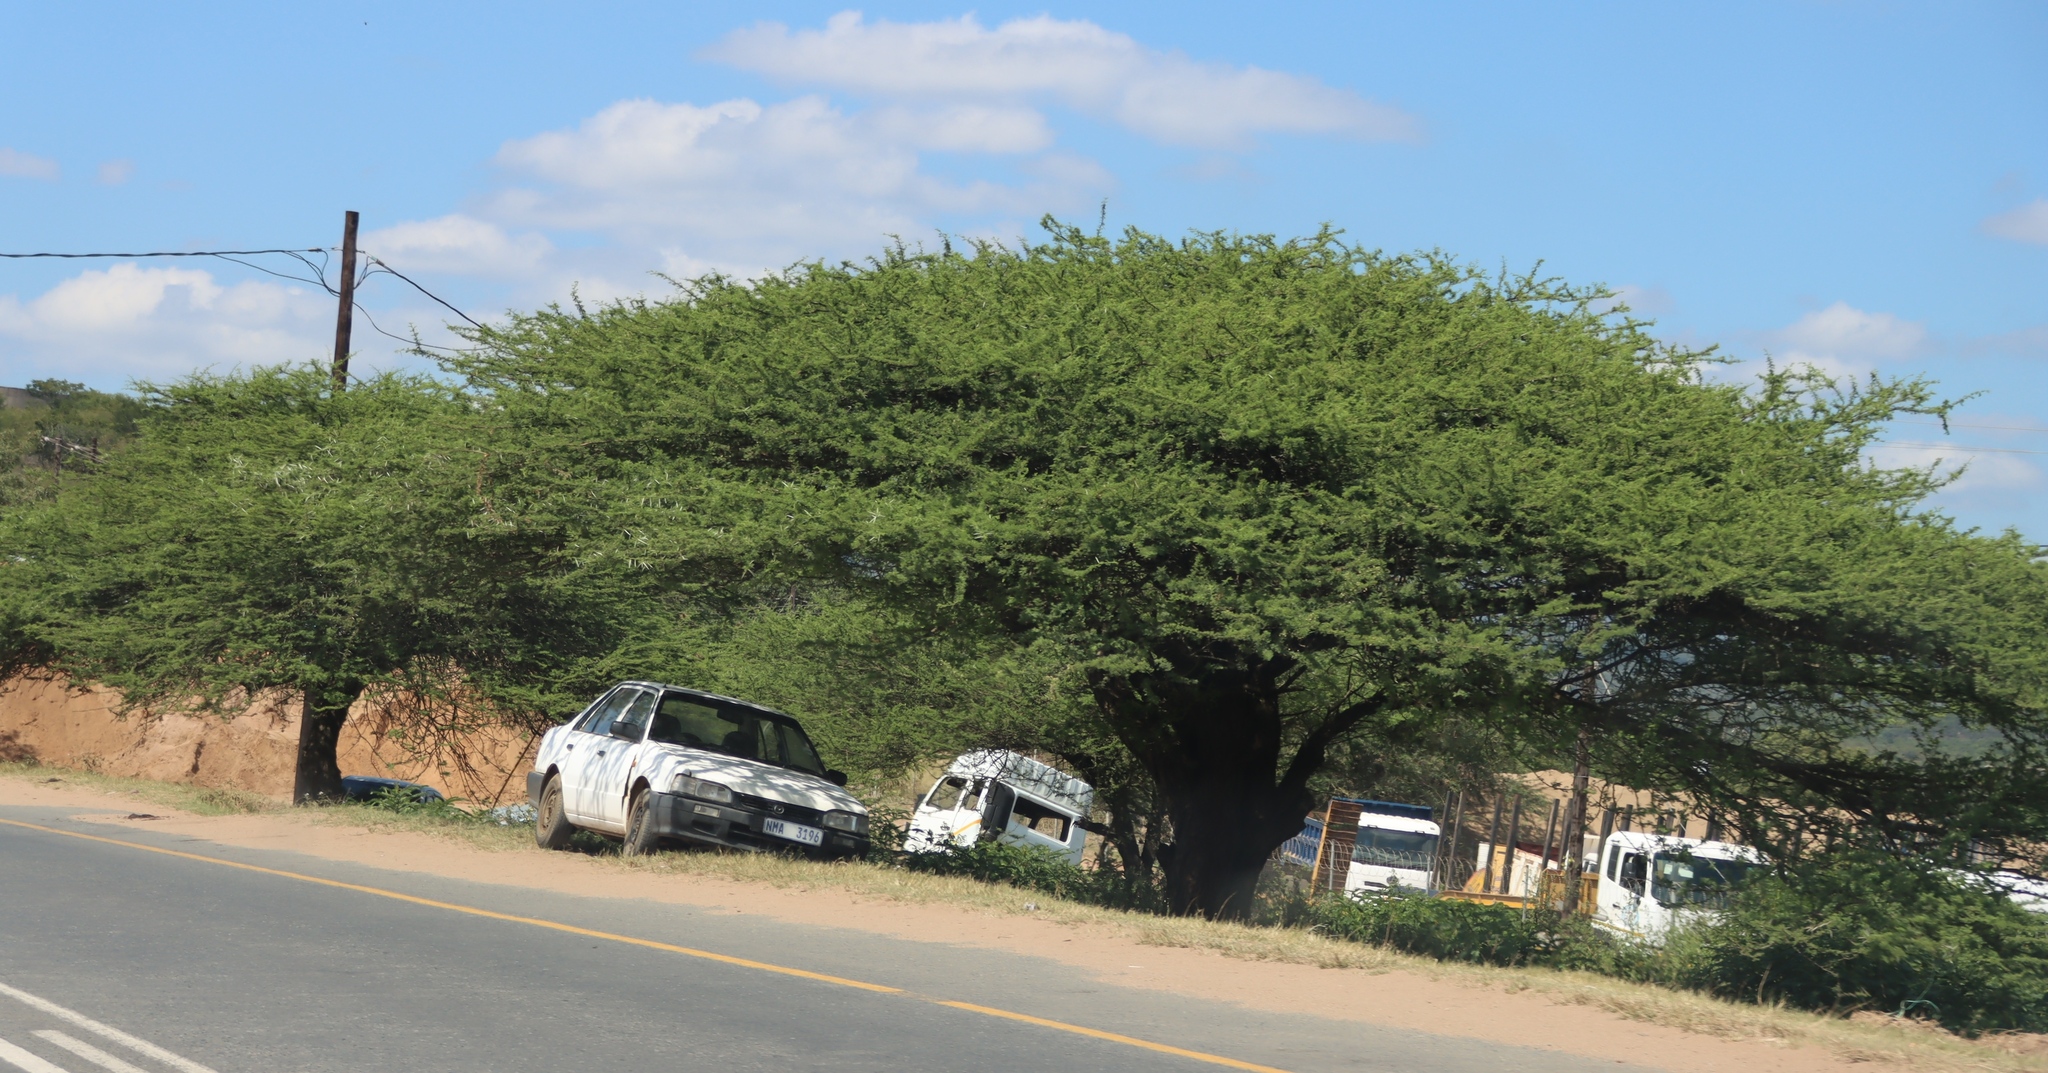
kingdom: Plantae
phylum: Tracheophyta
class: Magnoliopsida
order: Fabales
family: Fabaceae
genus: Vachellia
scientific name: Vachellia nilotica
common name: Arabic gumtree
